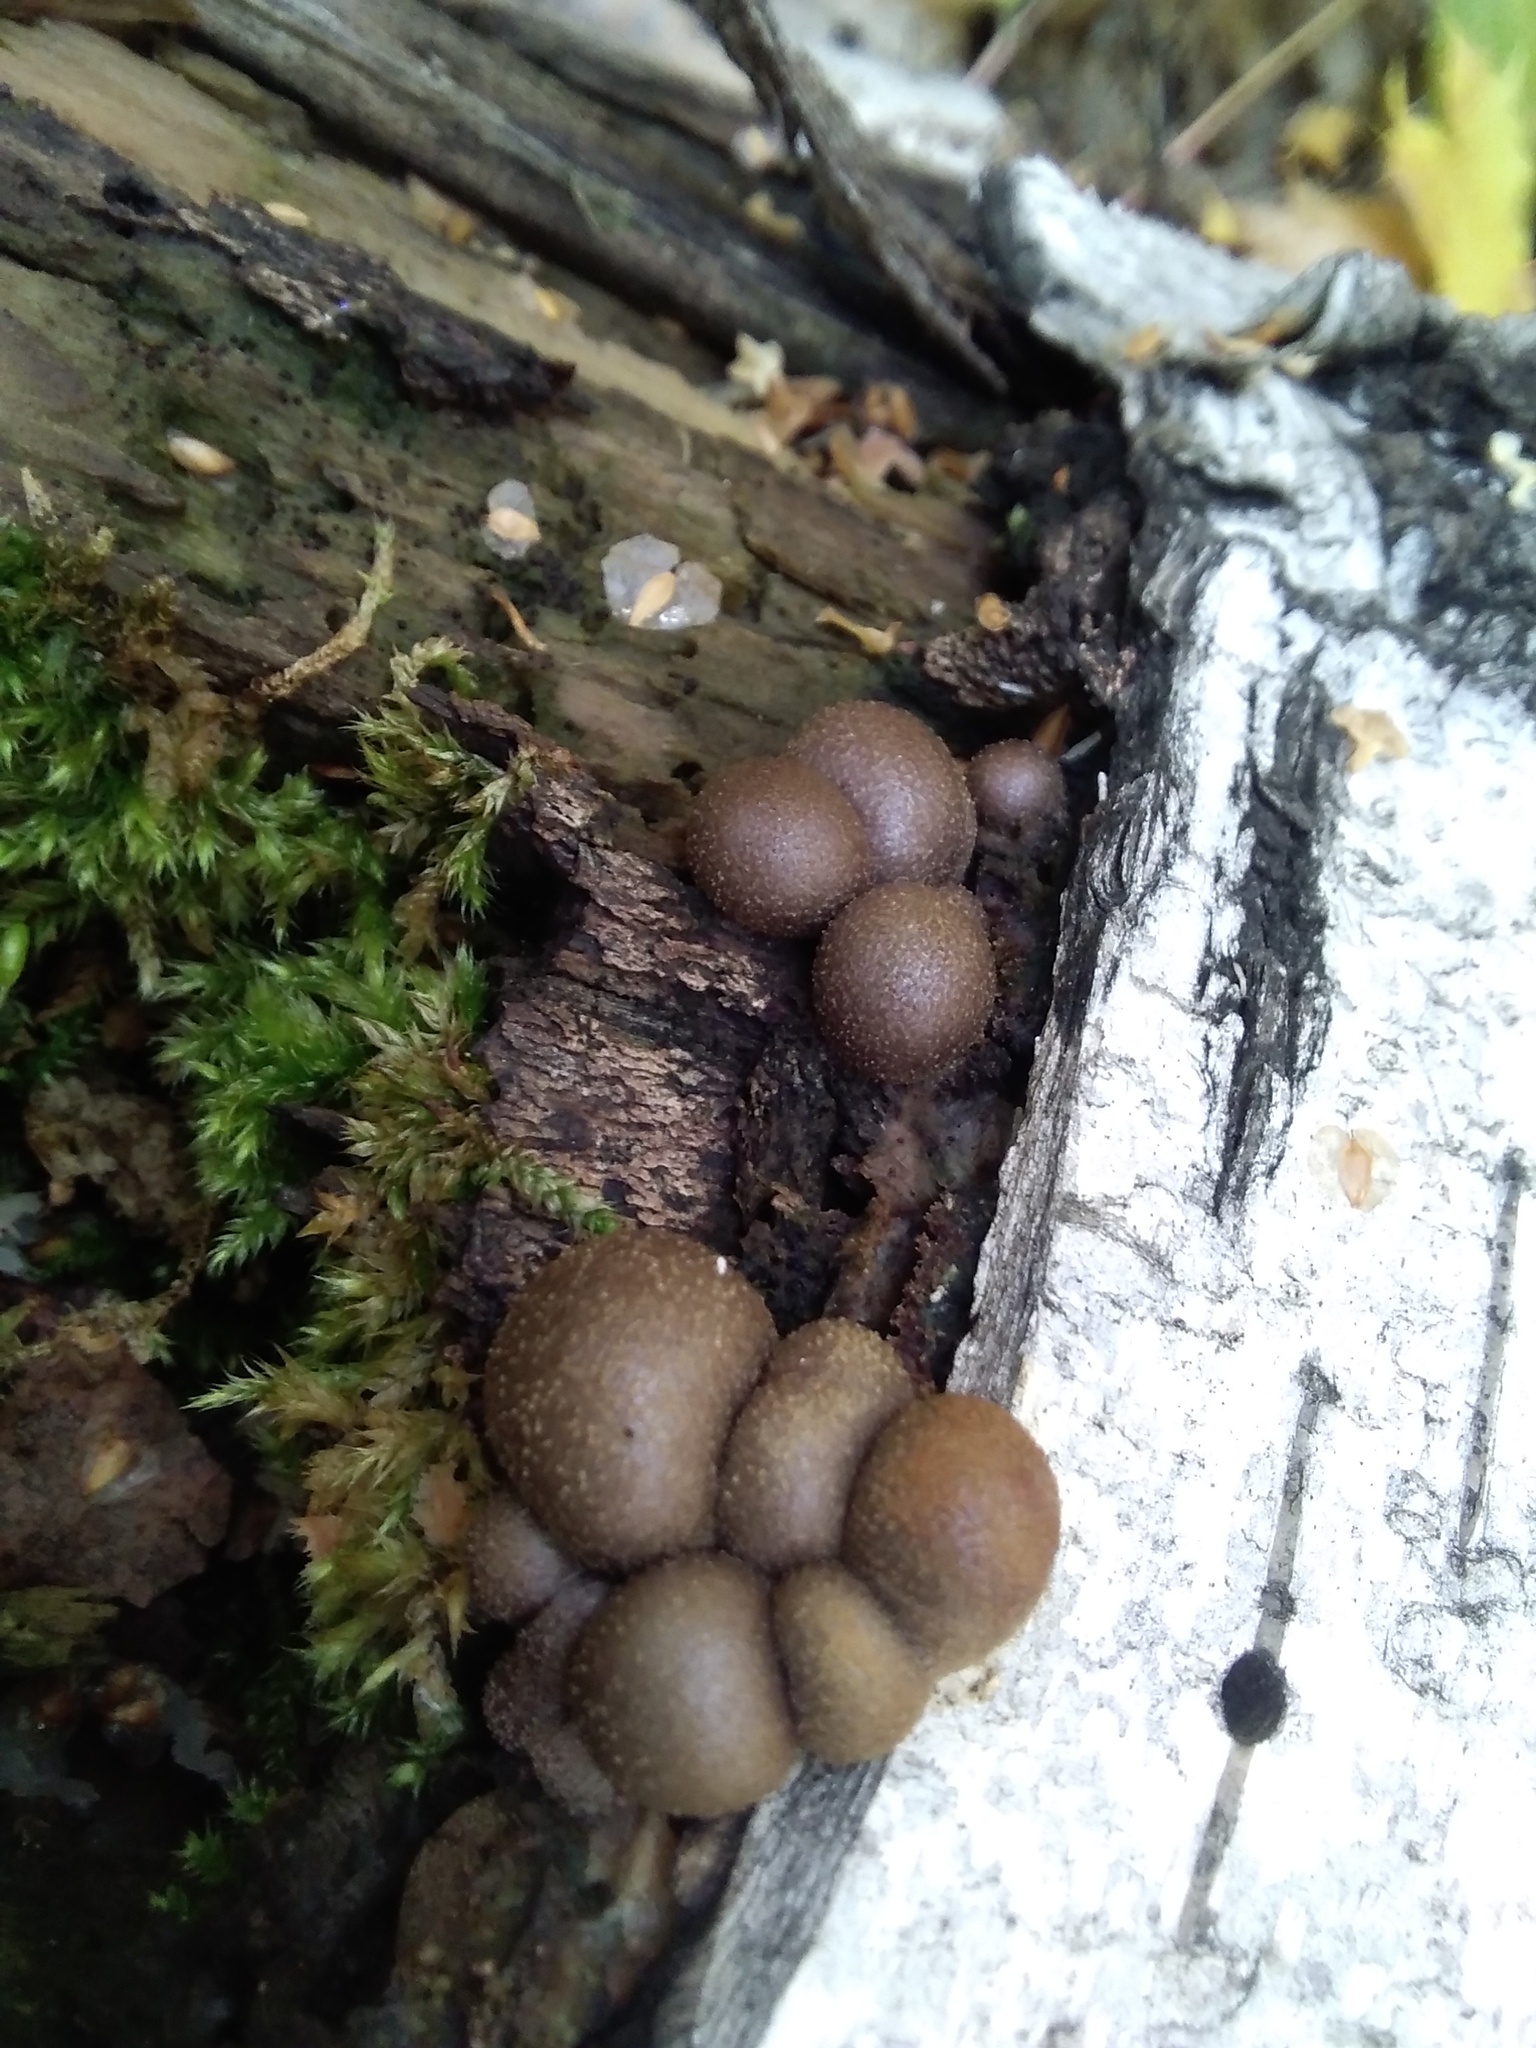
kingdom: Protozoa
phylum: Mycetozoa
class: Myxomycetes
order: Cribrariales
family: Tubiferaceae
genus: Lycogala
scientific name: Lycogala epidendrum
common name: Wolf's milk
